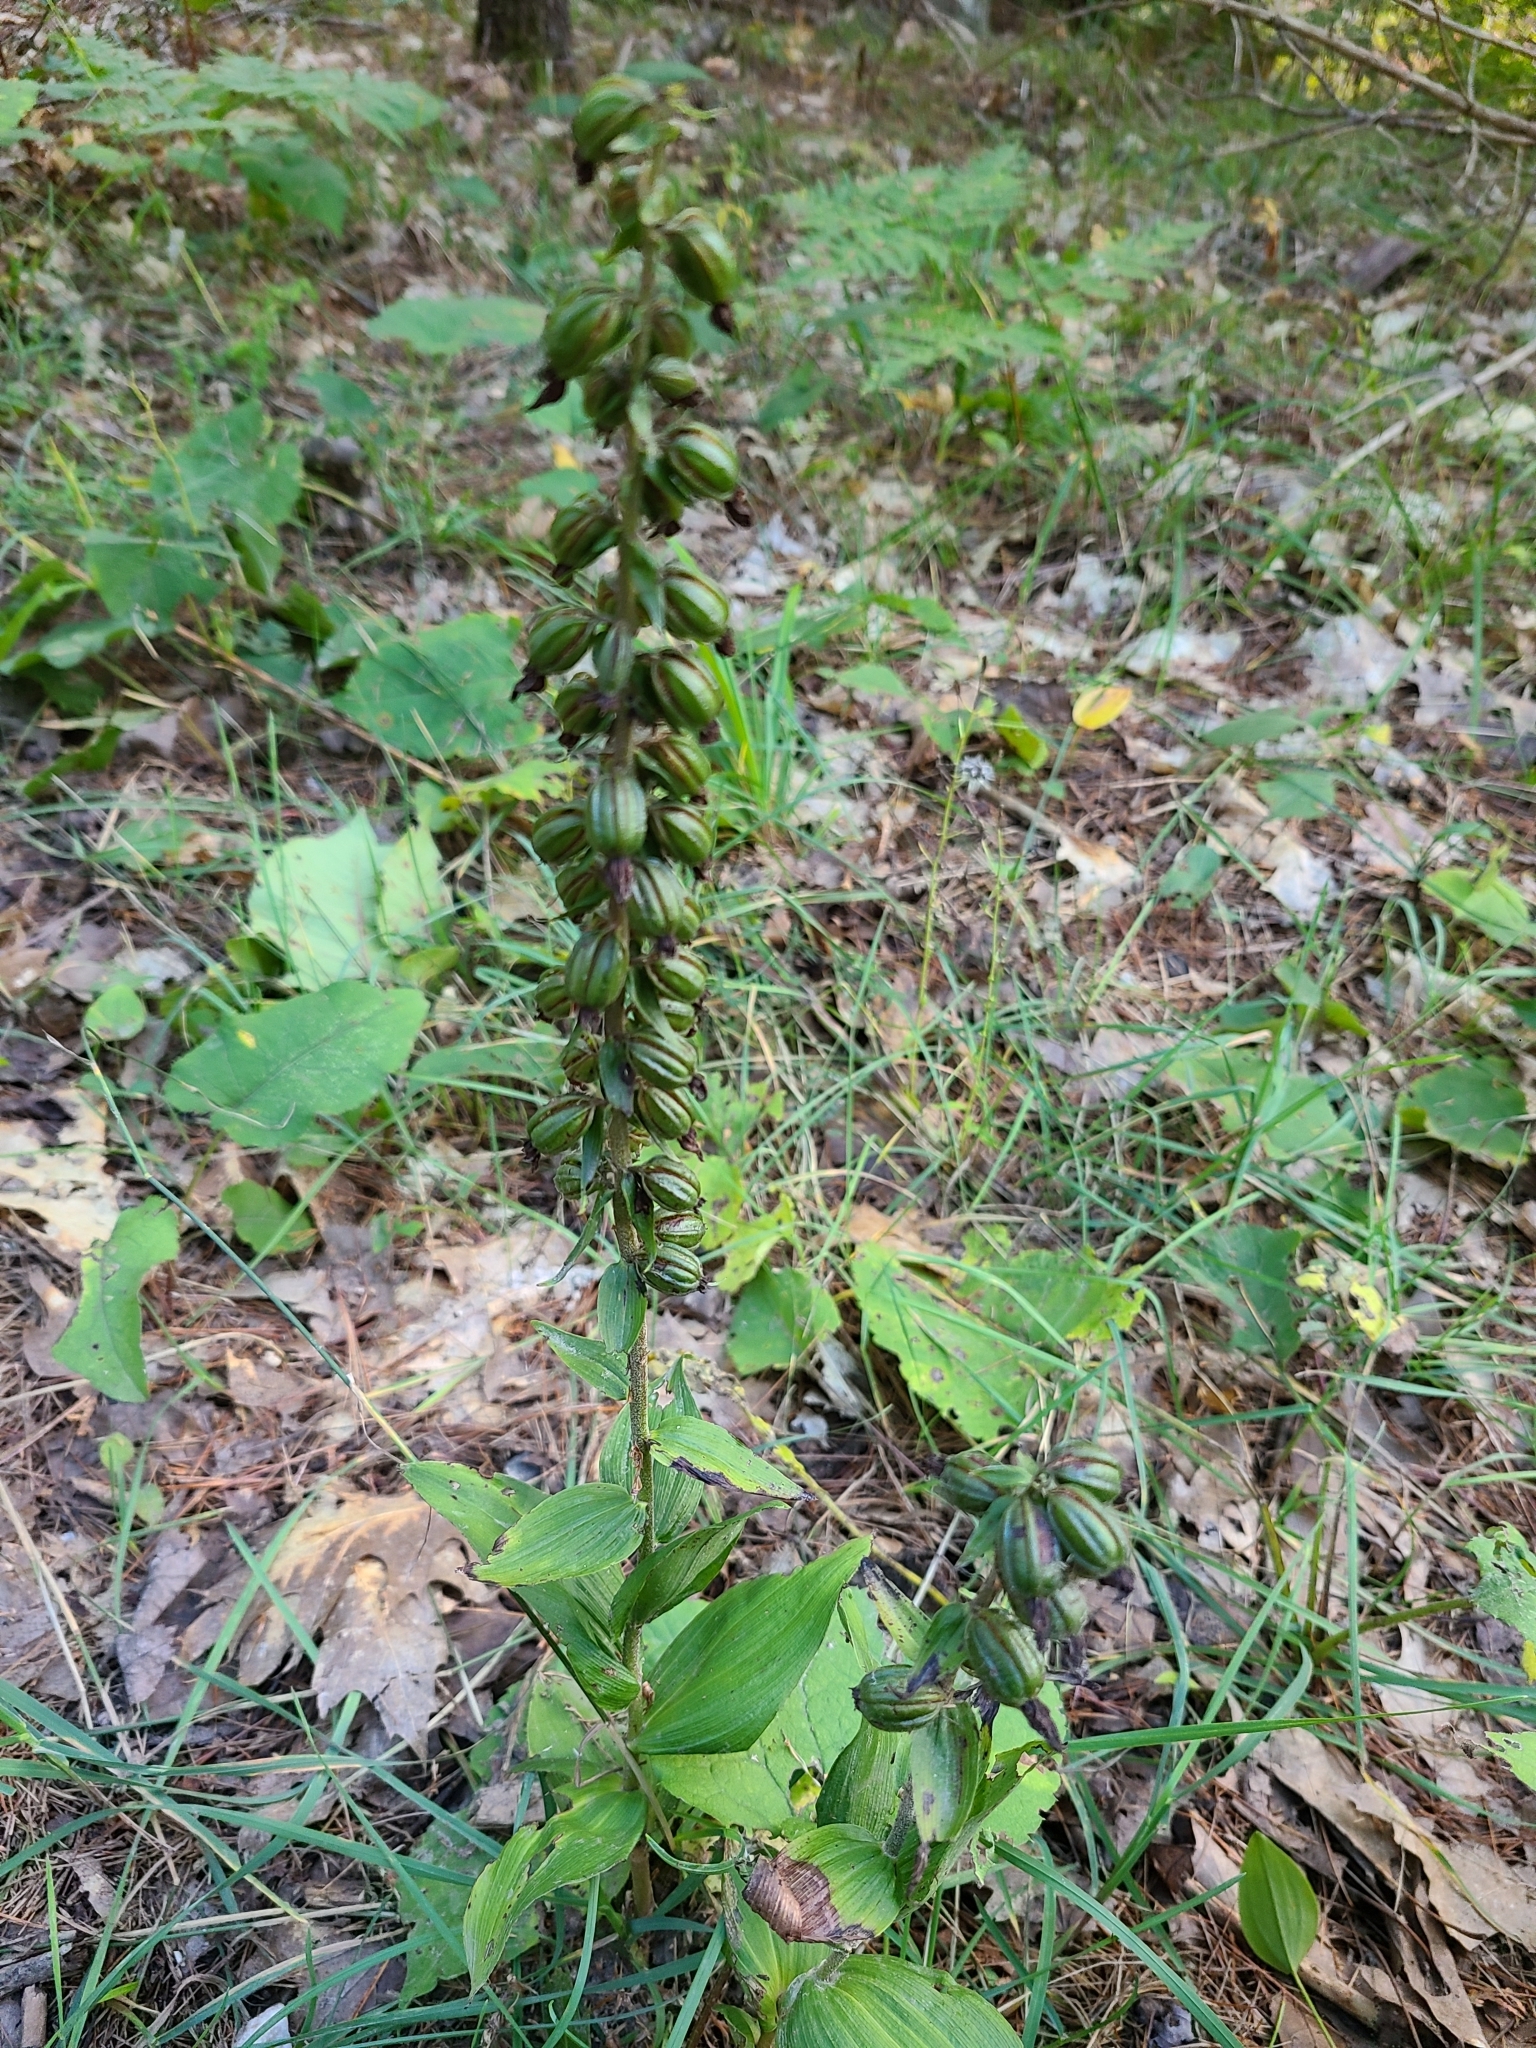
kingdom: Plantae
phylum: Tracheophyta
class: Liliopsida
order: Asparagales
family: Orchidaceae
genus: Epipactis
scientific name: Epipactis helleborine
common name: Broad-leaved helleborine
